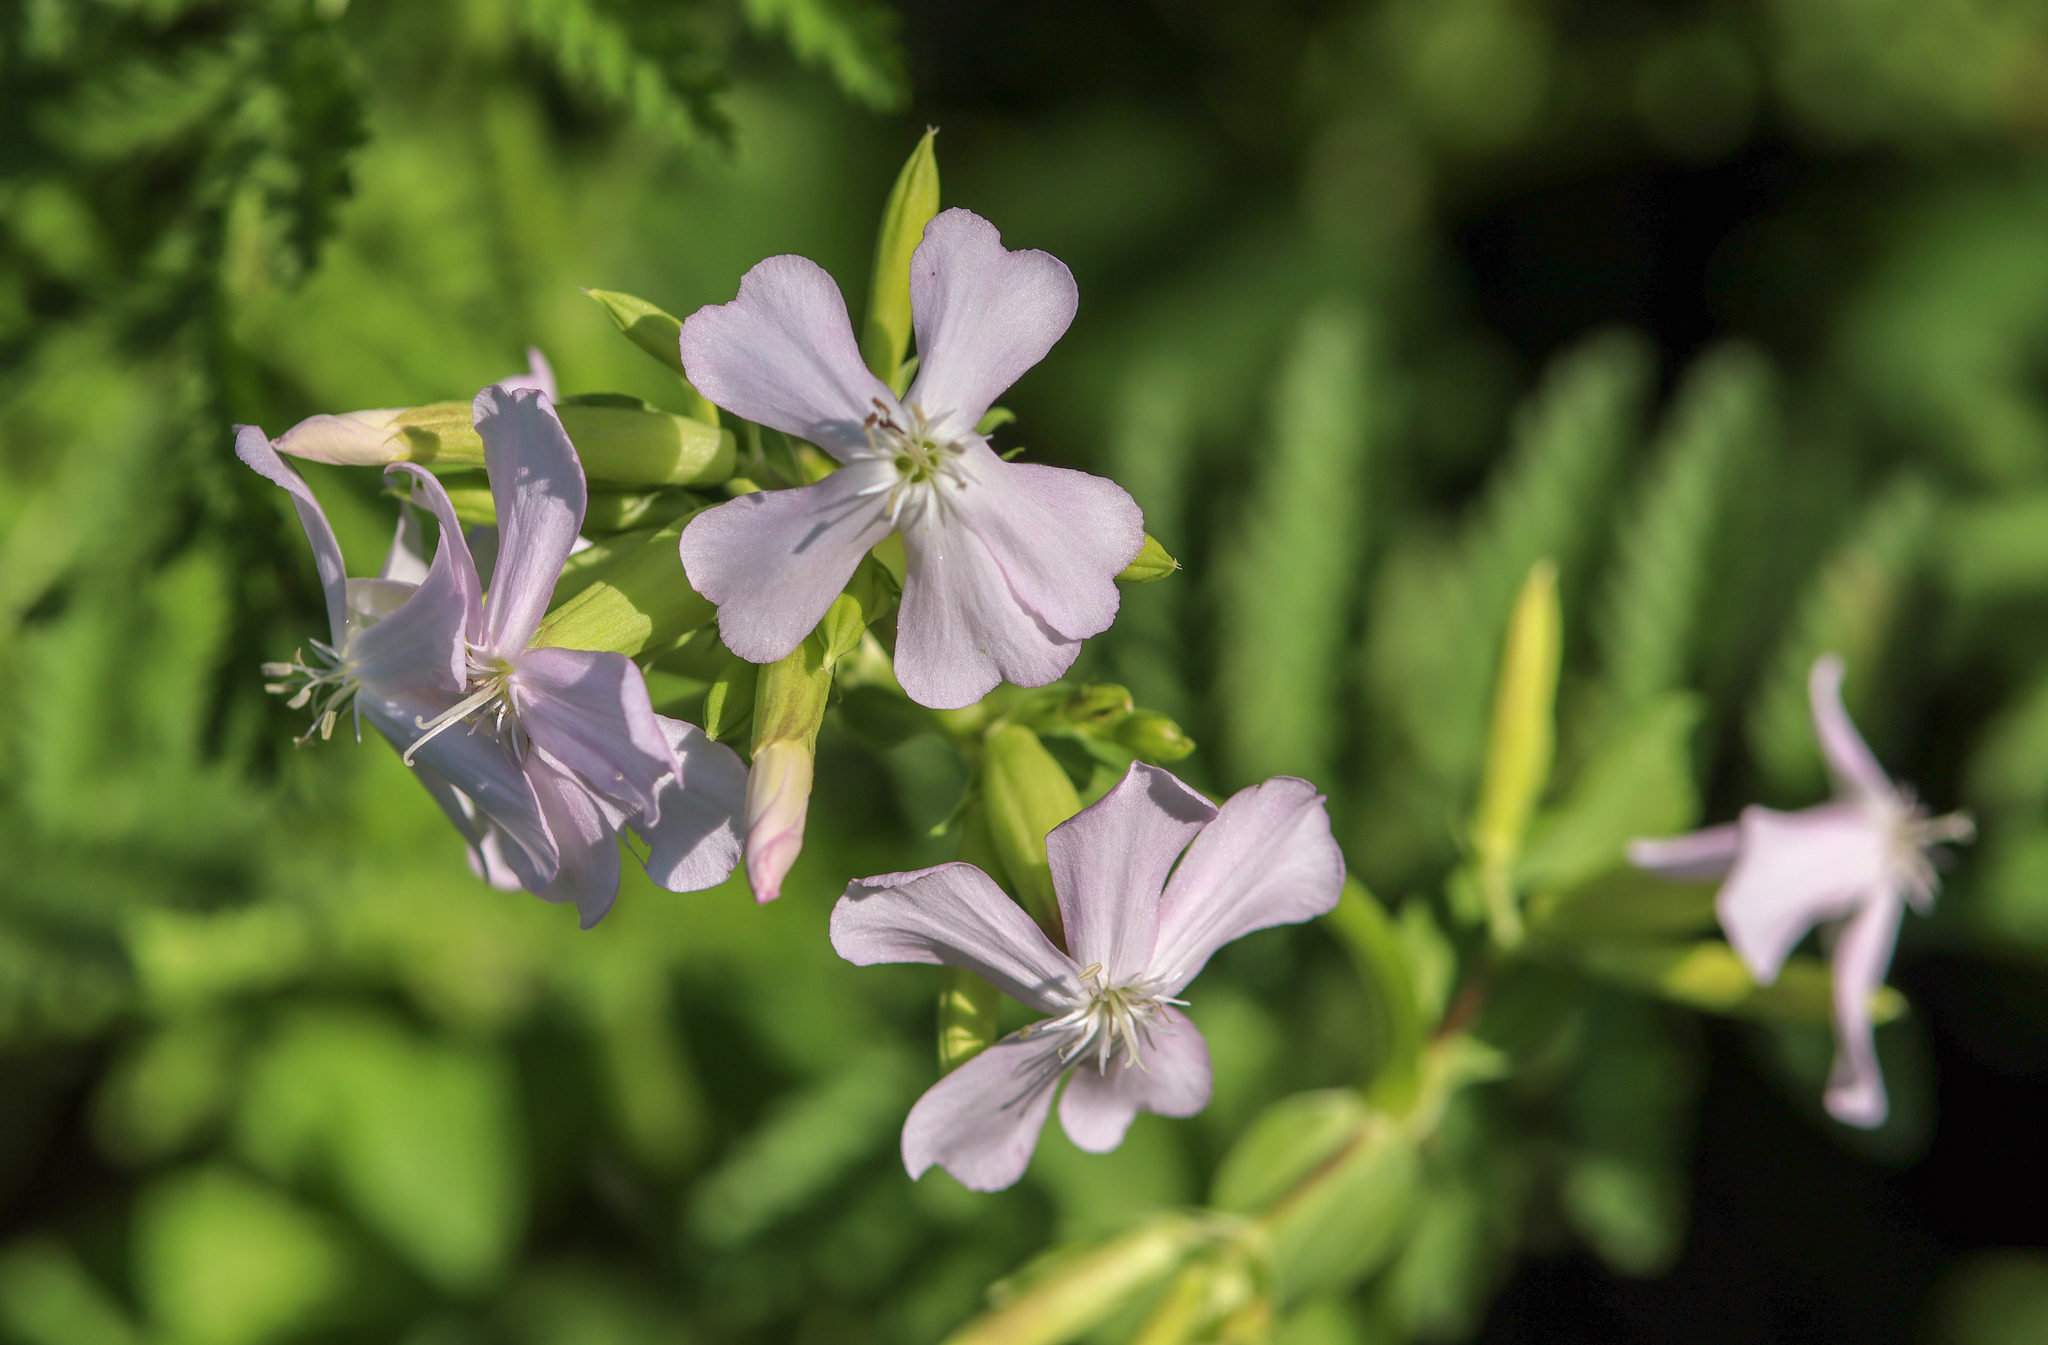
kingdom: Plantae
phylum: Tracheophyta
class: Magnoliopsida
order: Caryophyllales
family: Caryophyllaceae
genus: Saponaria
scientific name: Saponaria officinalis
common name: Soapwort
